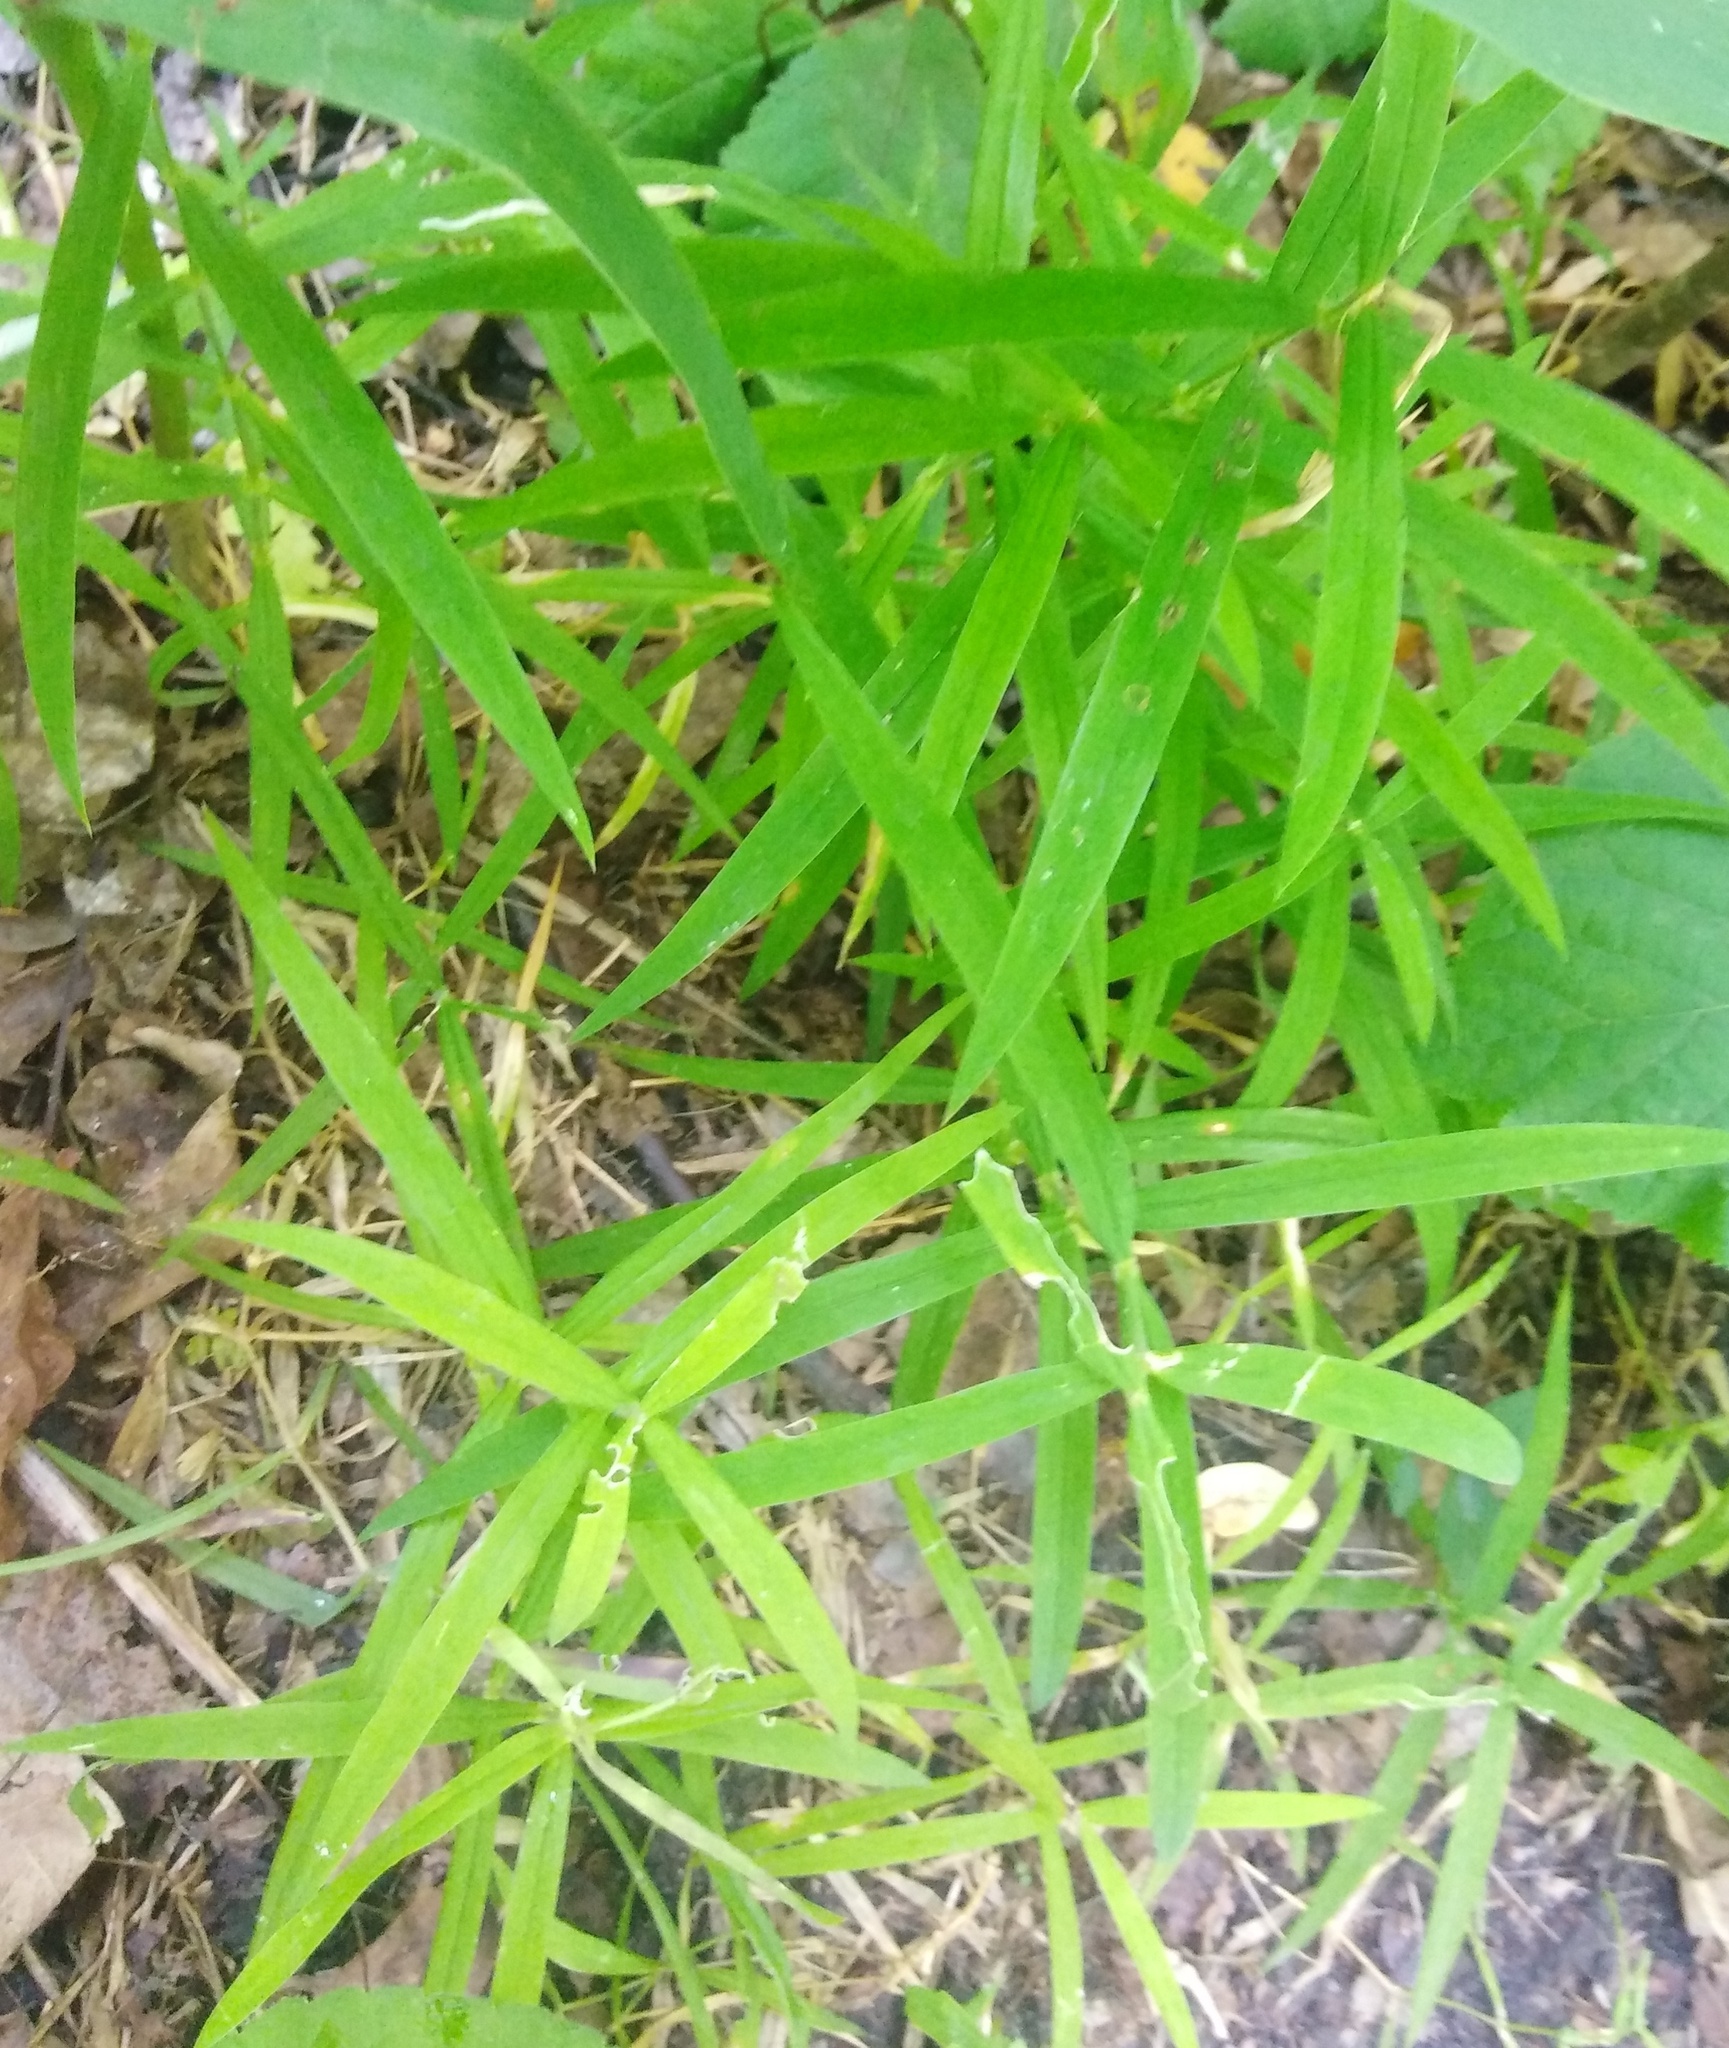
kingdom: Plantae
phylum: Tracheophyta
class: Magnoliopsida
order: Caryophyllales
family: Caryophyllaceae
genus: Rabelera
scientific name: Rabelera holostea
